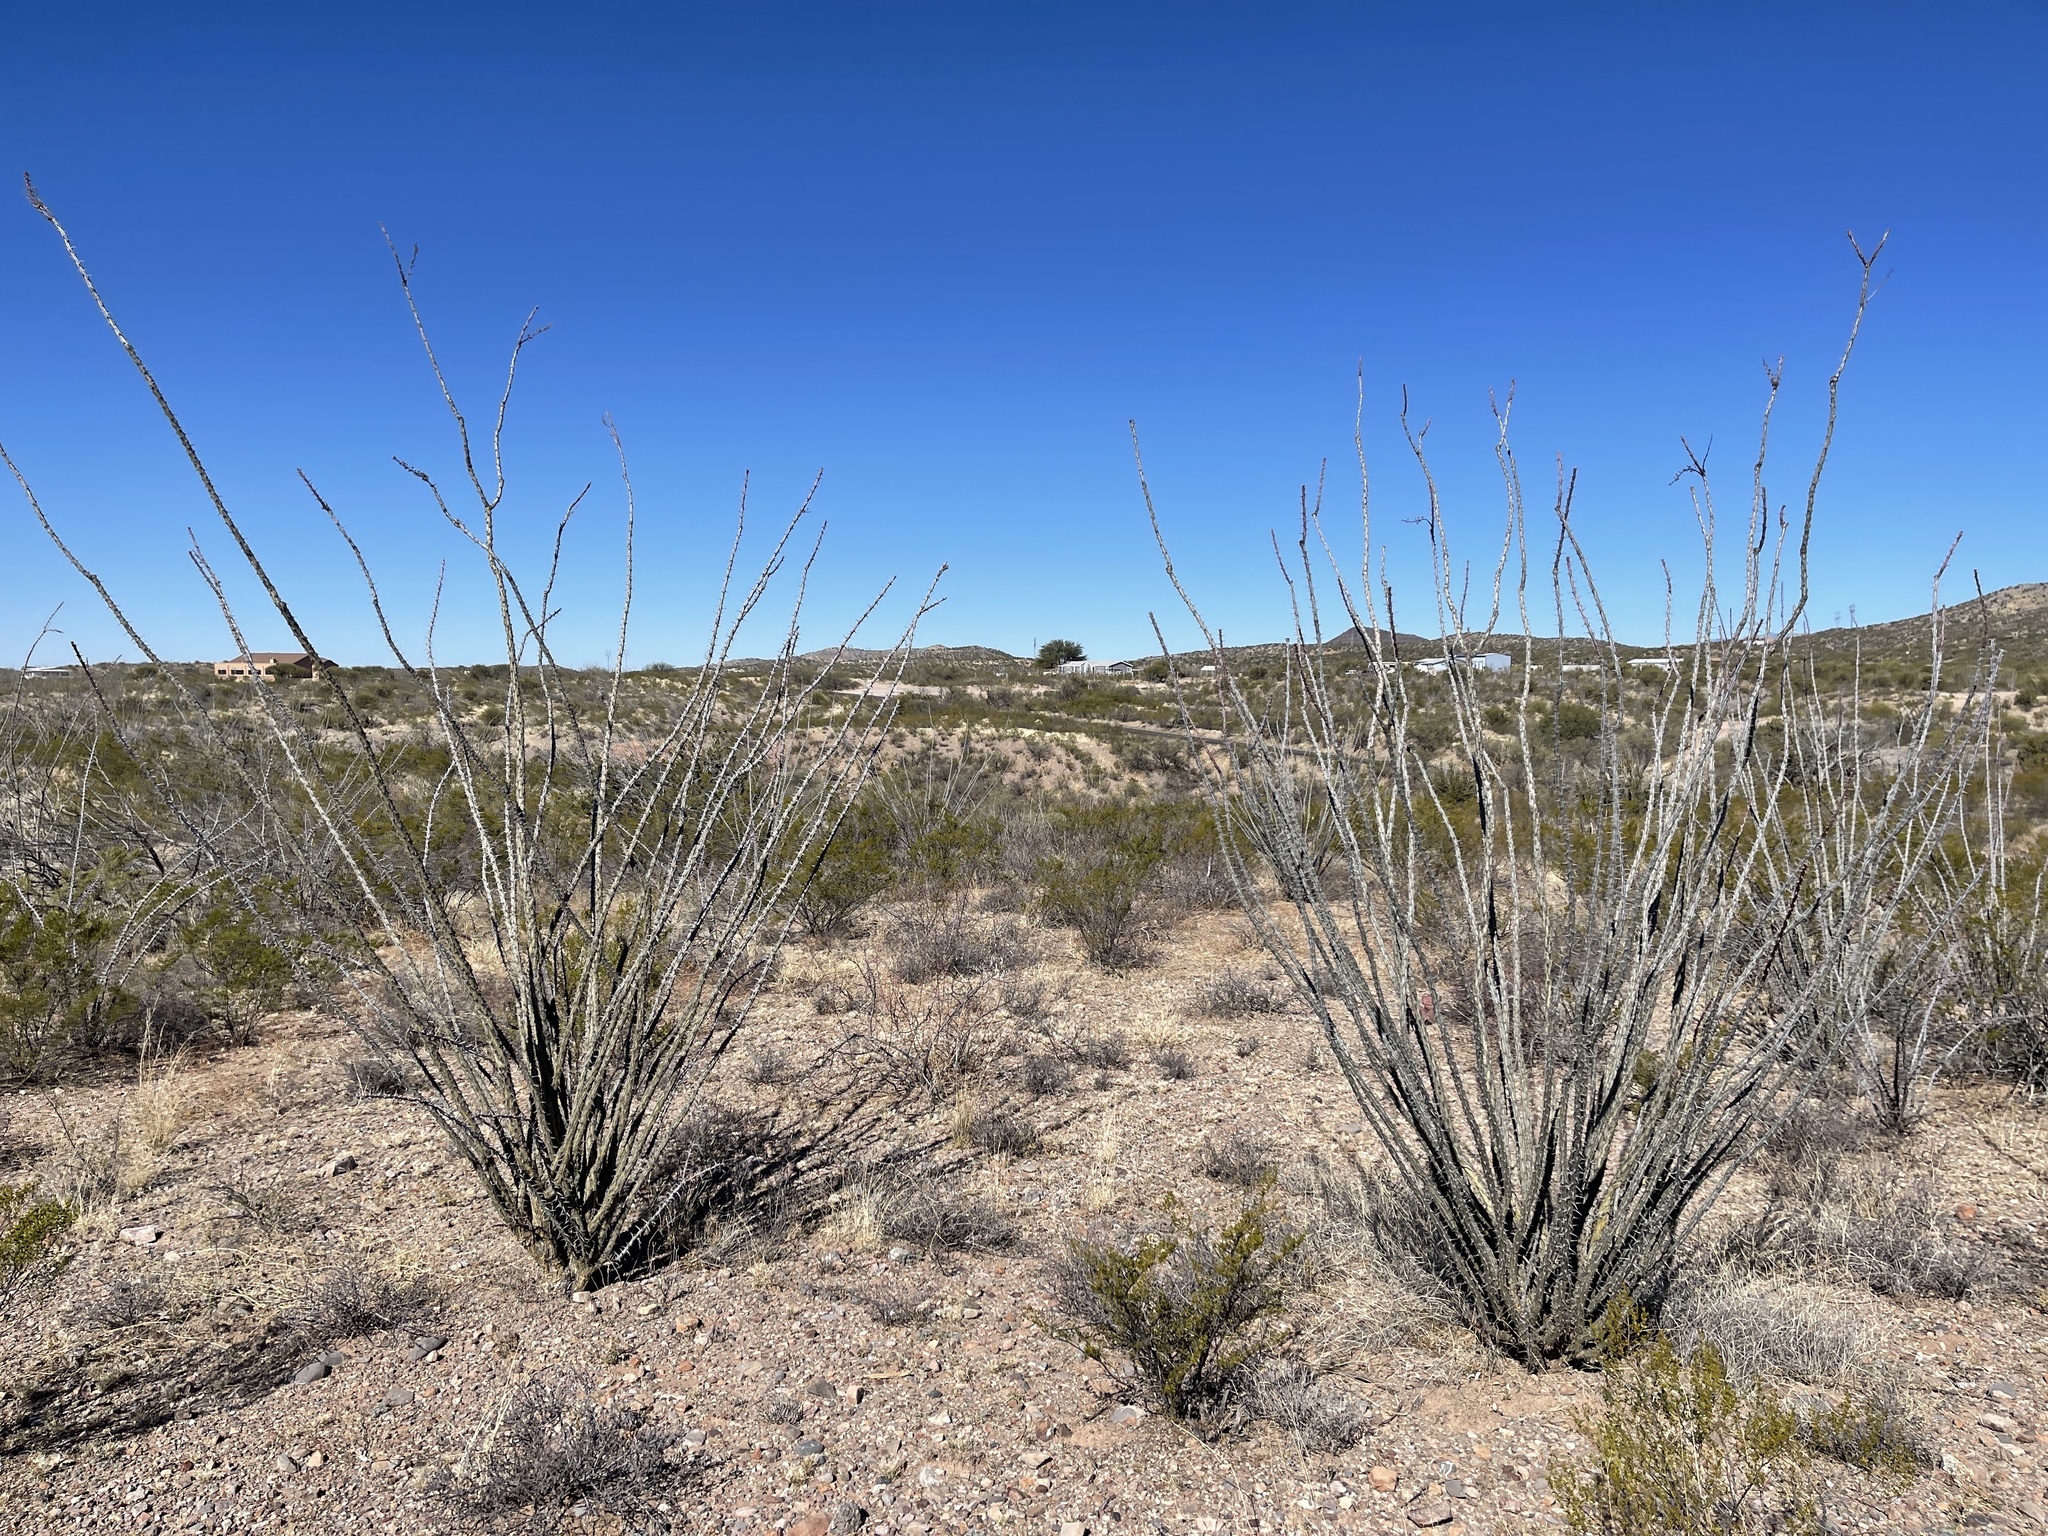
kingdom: Plantae
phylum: Tracheophyta
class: Magnoliopsida
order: Ericales
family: Fouquieriaceae
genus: Fouquieria
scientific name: Fouquieria splendens
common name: Vine-cactus
